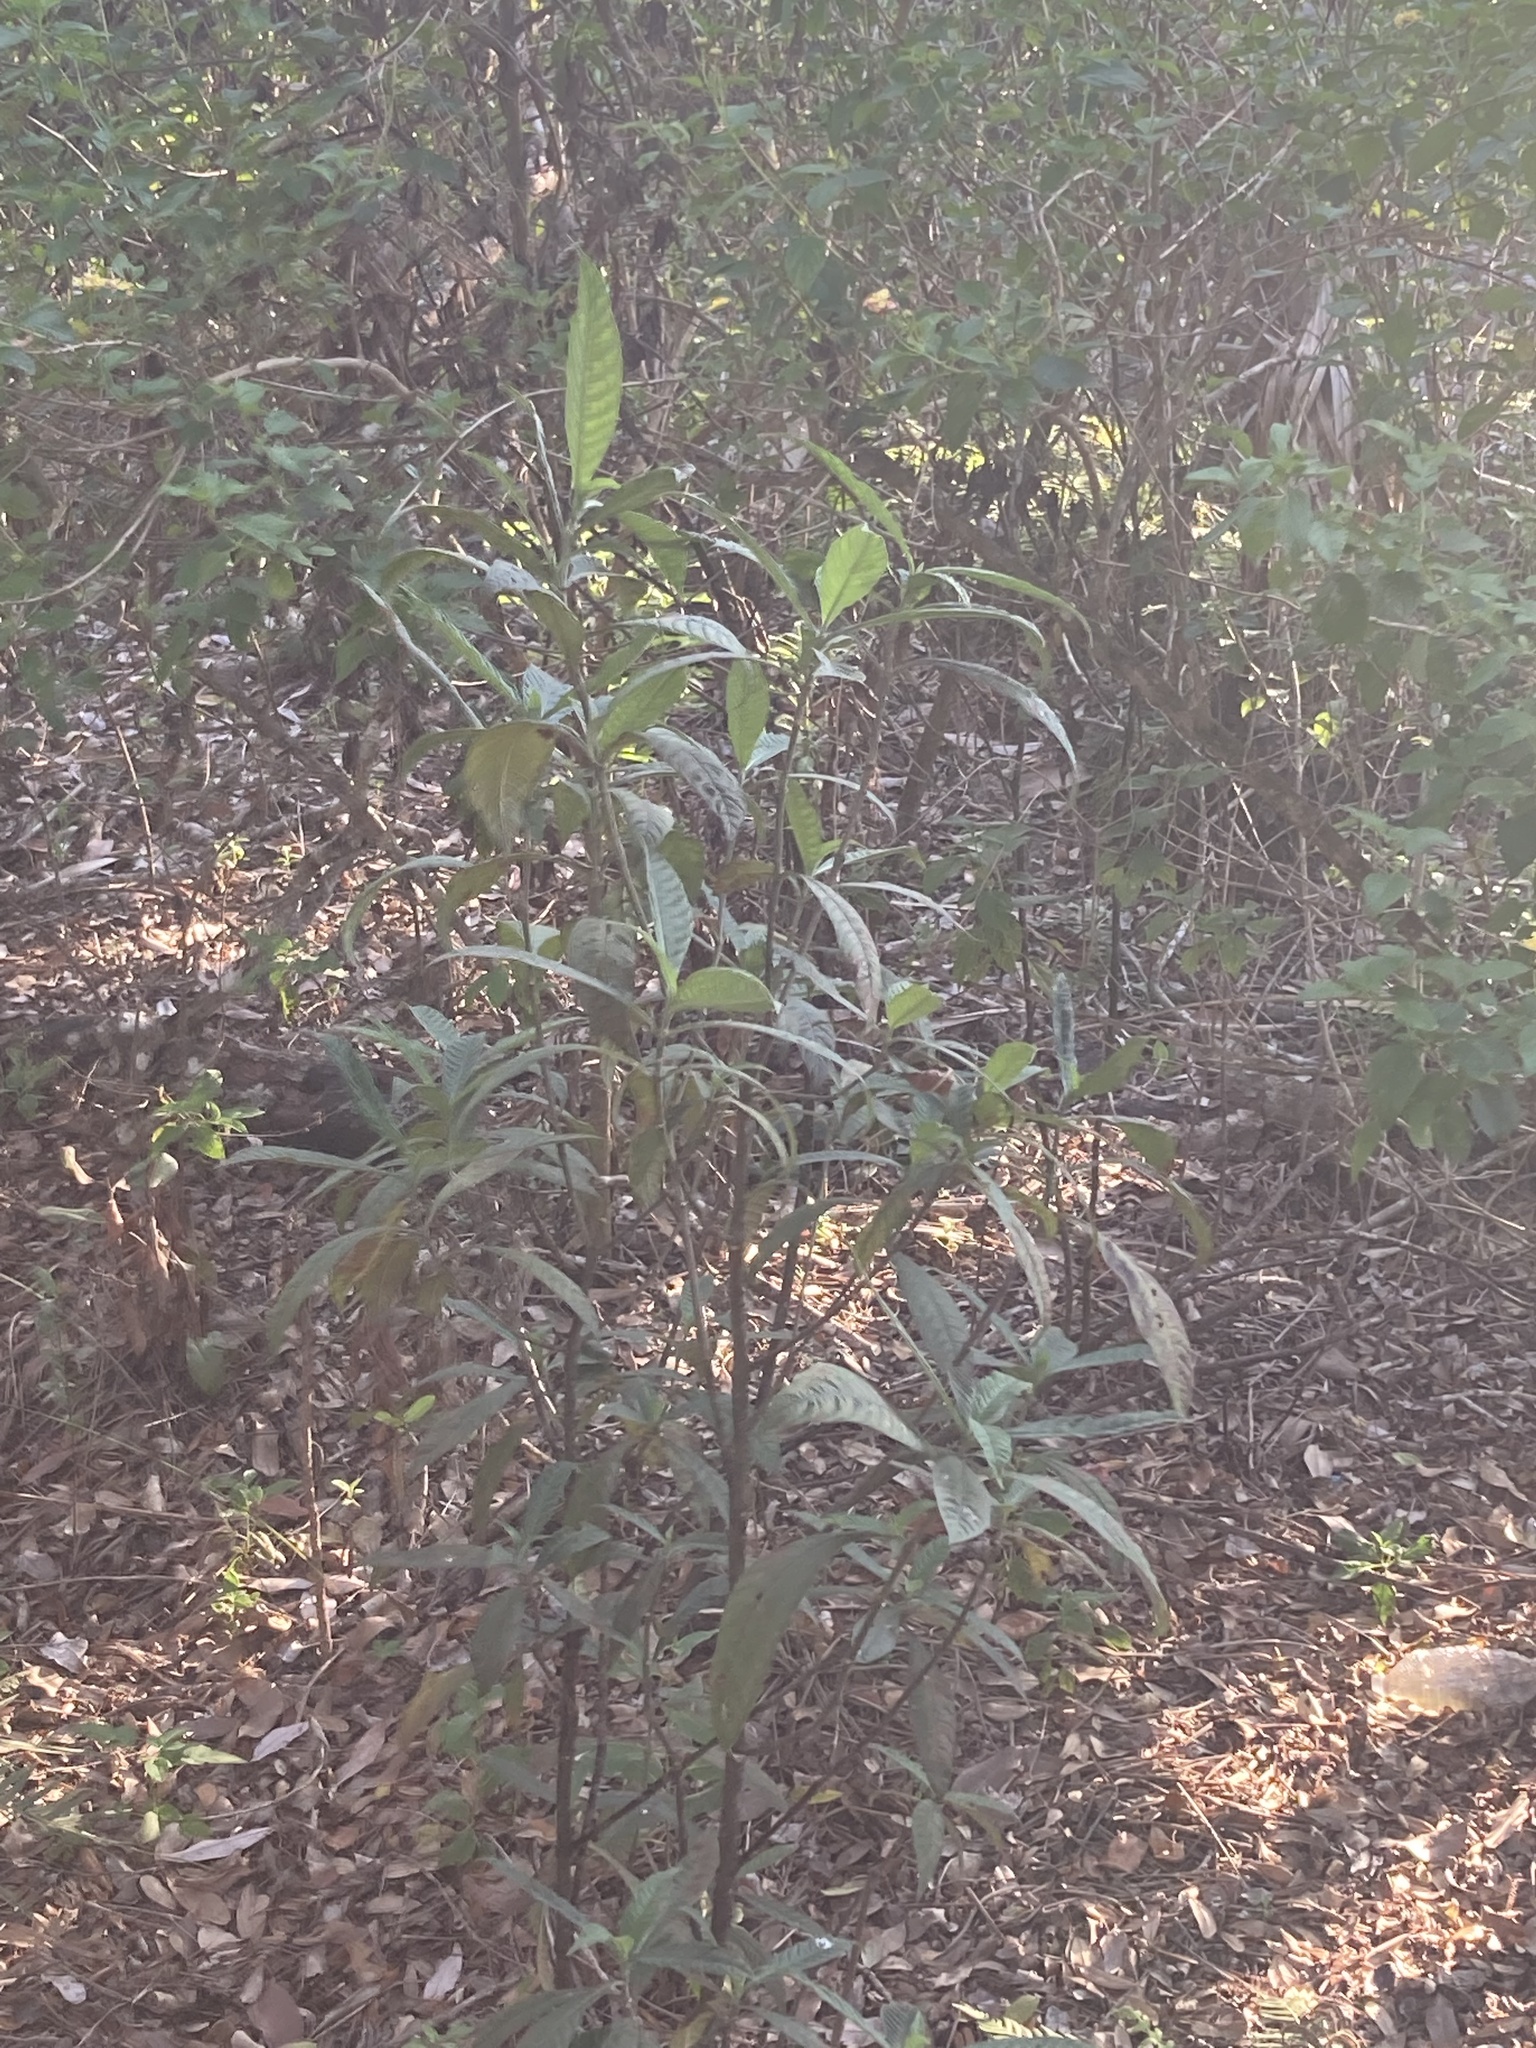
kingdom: Plantae
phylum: Tracheophyta
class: Magnoliopsida
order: Gentianales
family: Rubiaceae
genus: Psychotria
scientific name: Psychotria tenuifolia
